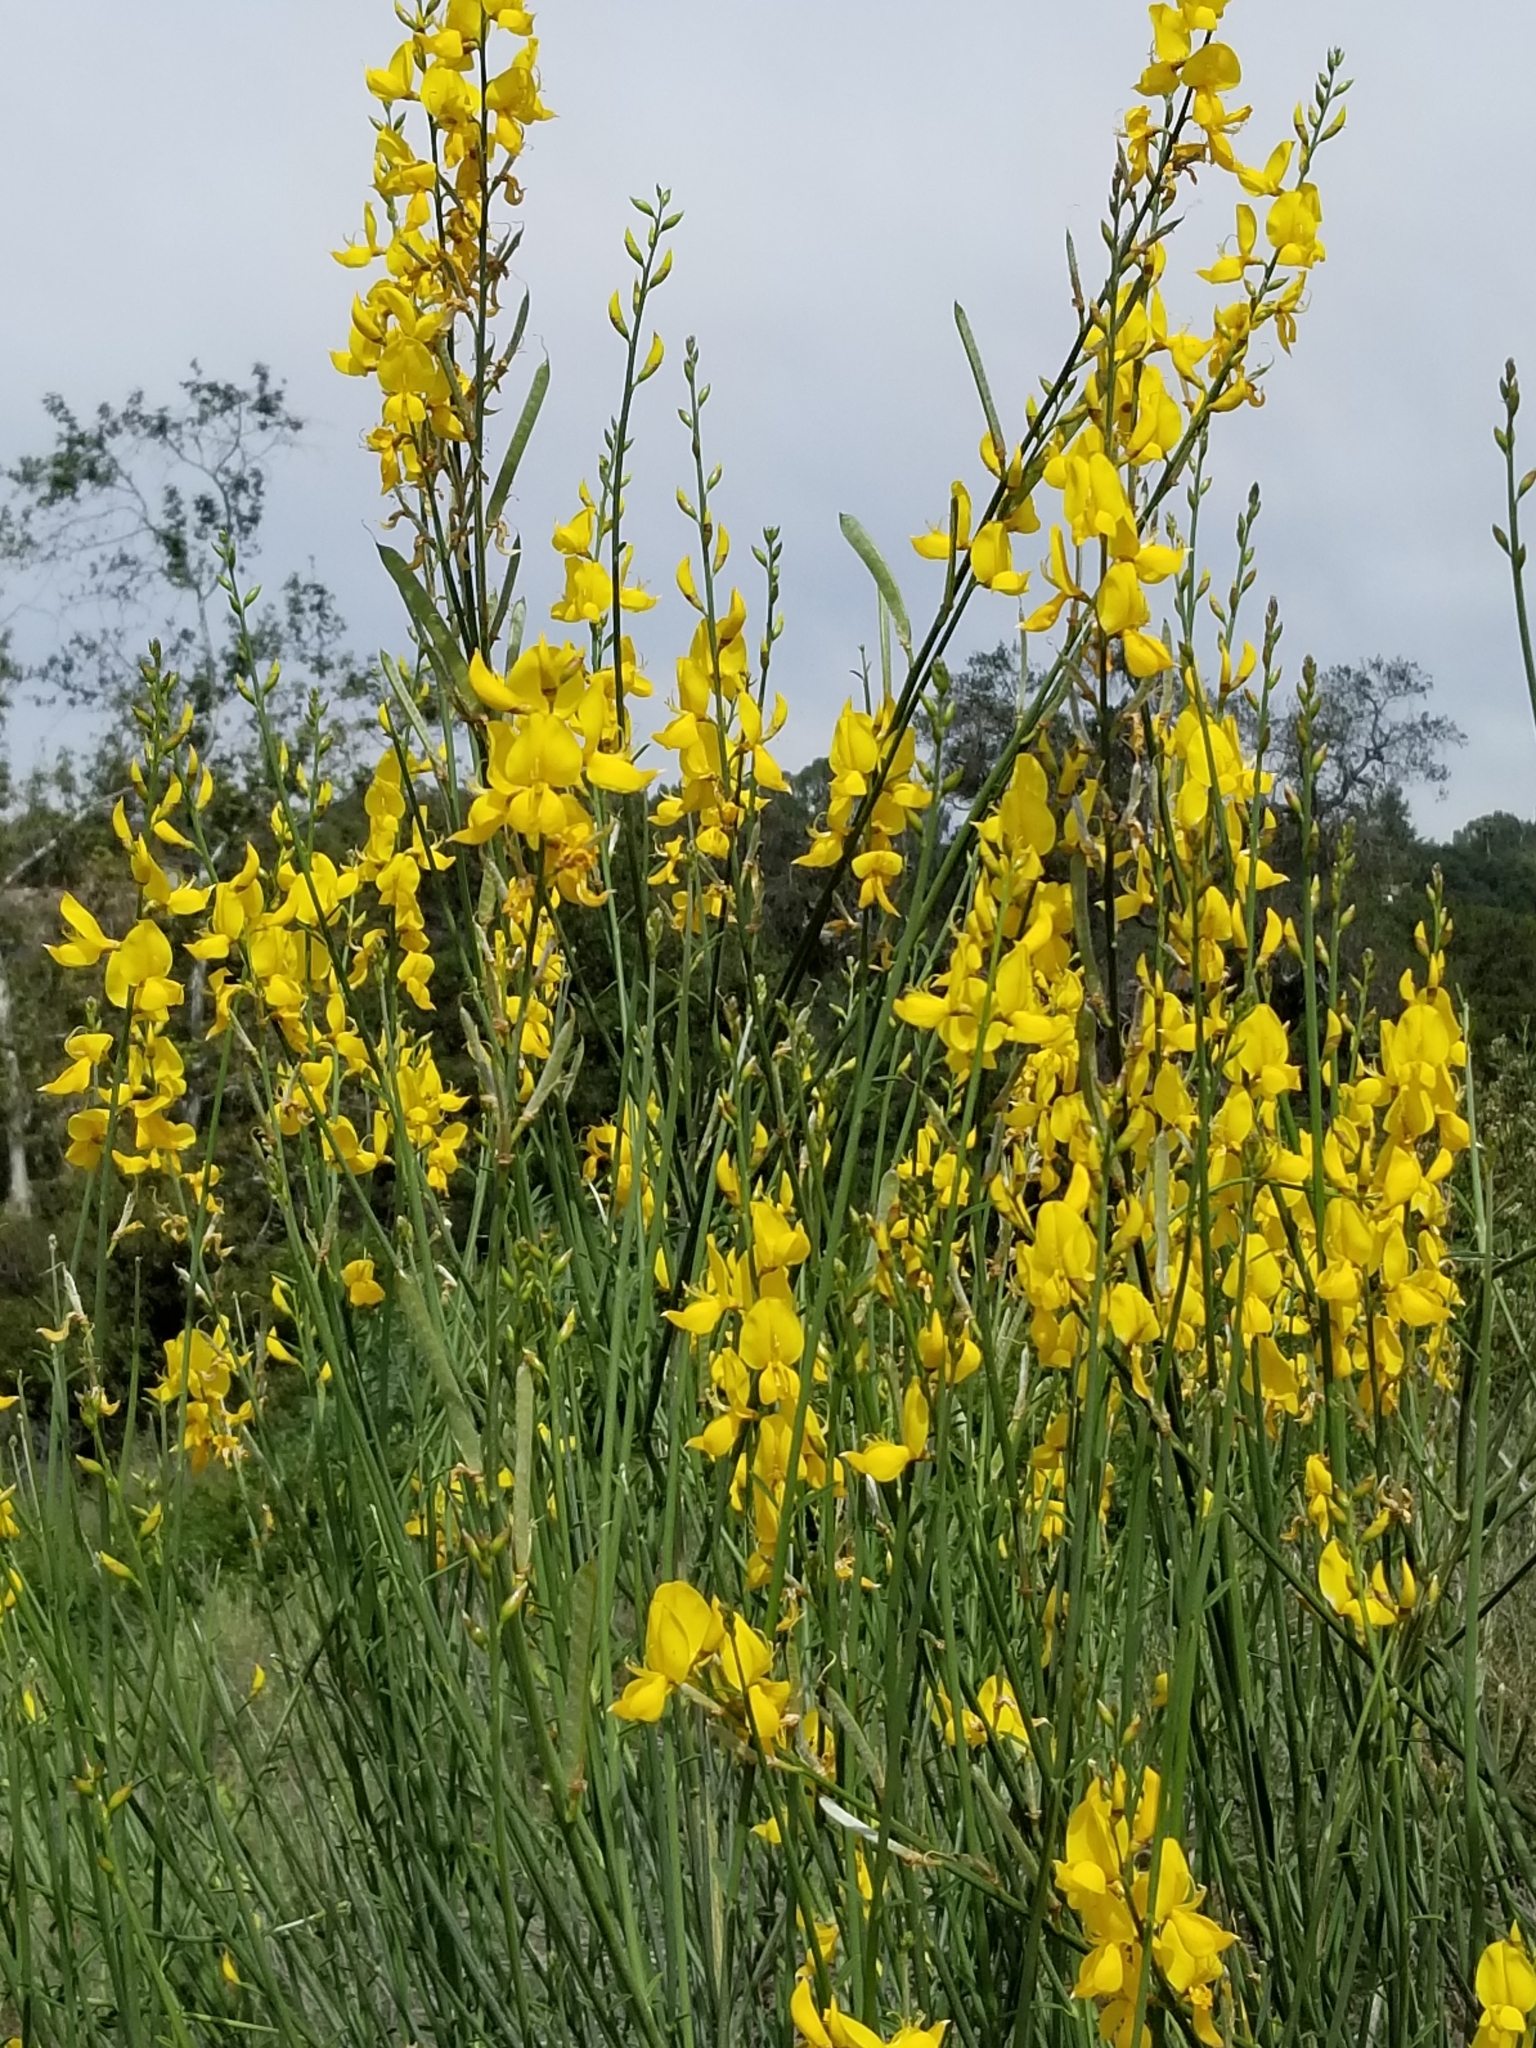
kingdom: Plantae
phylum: Tracheophyta
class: Magnoliopsida
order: Fabales
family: Fabaceae
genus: Spartium
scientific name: Spartium junceum
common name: Spanish broom
